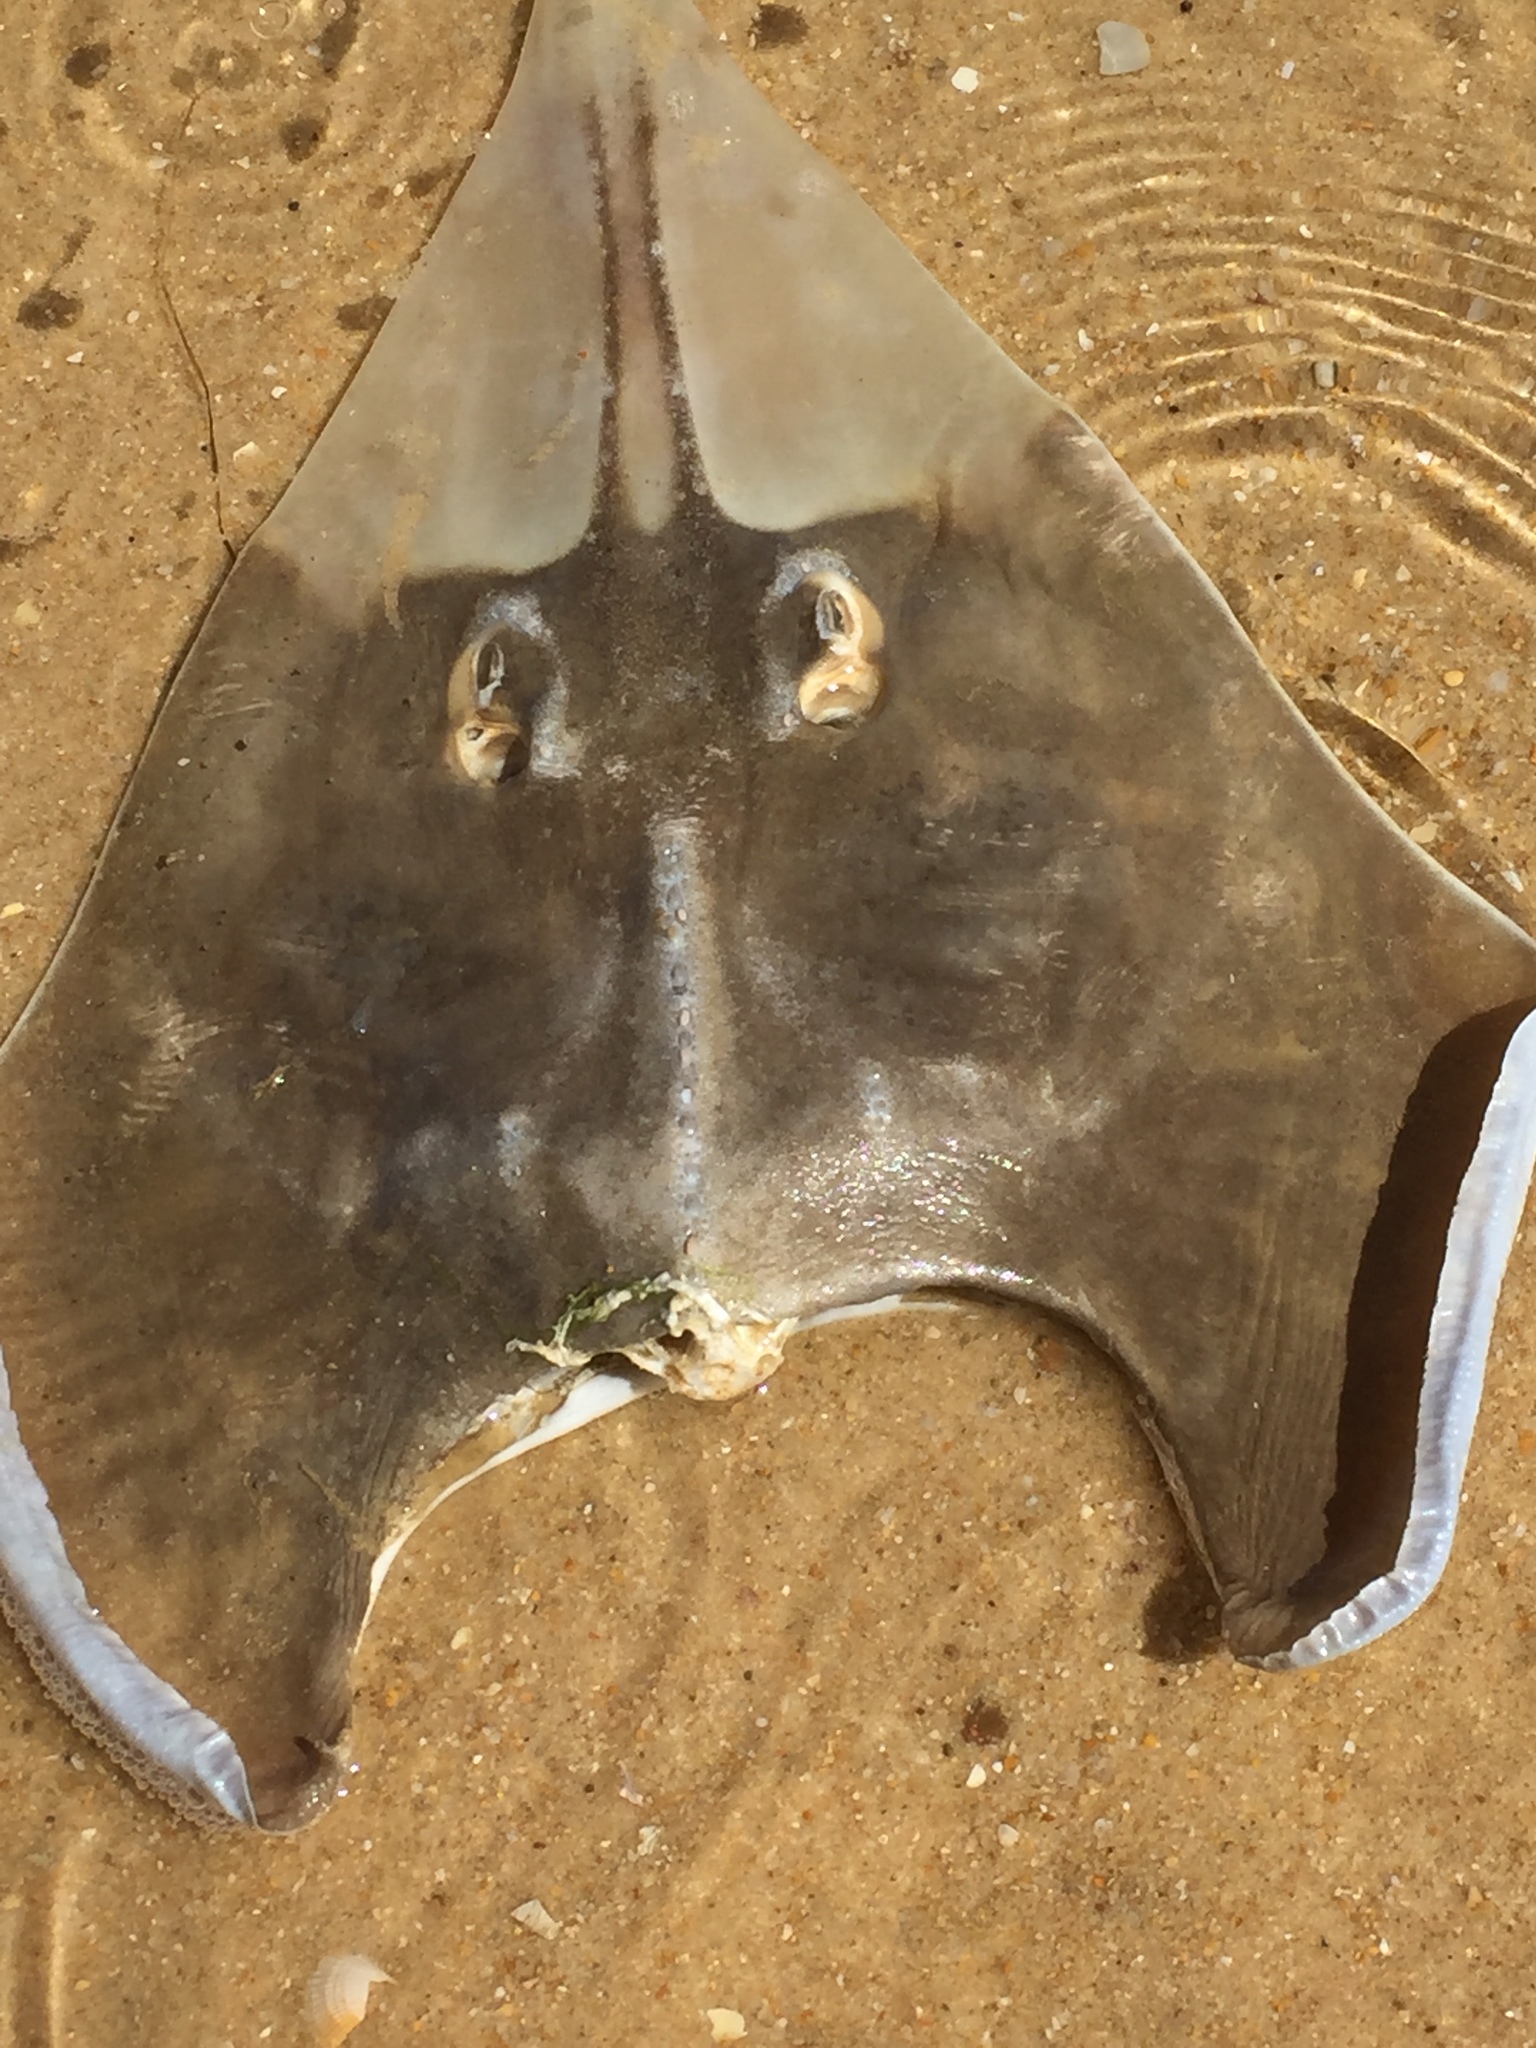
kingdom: Animalia
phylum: Chordata
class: Elasmobranchii
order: Rhinopristiformes
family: Glaucostegidae
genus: Glaucostegus
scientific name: Glaucostegus cemiculus
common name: Blackchin guitarfish
